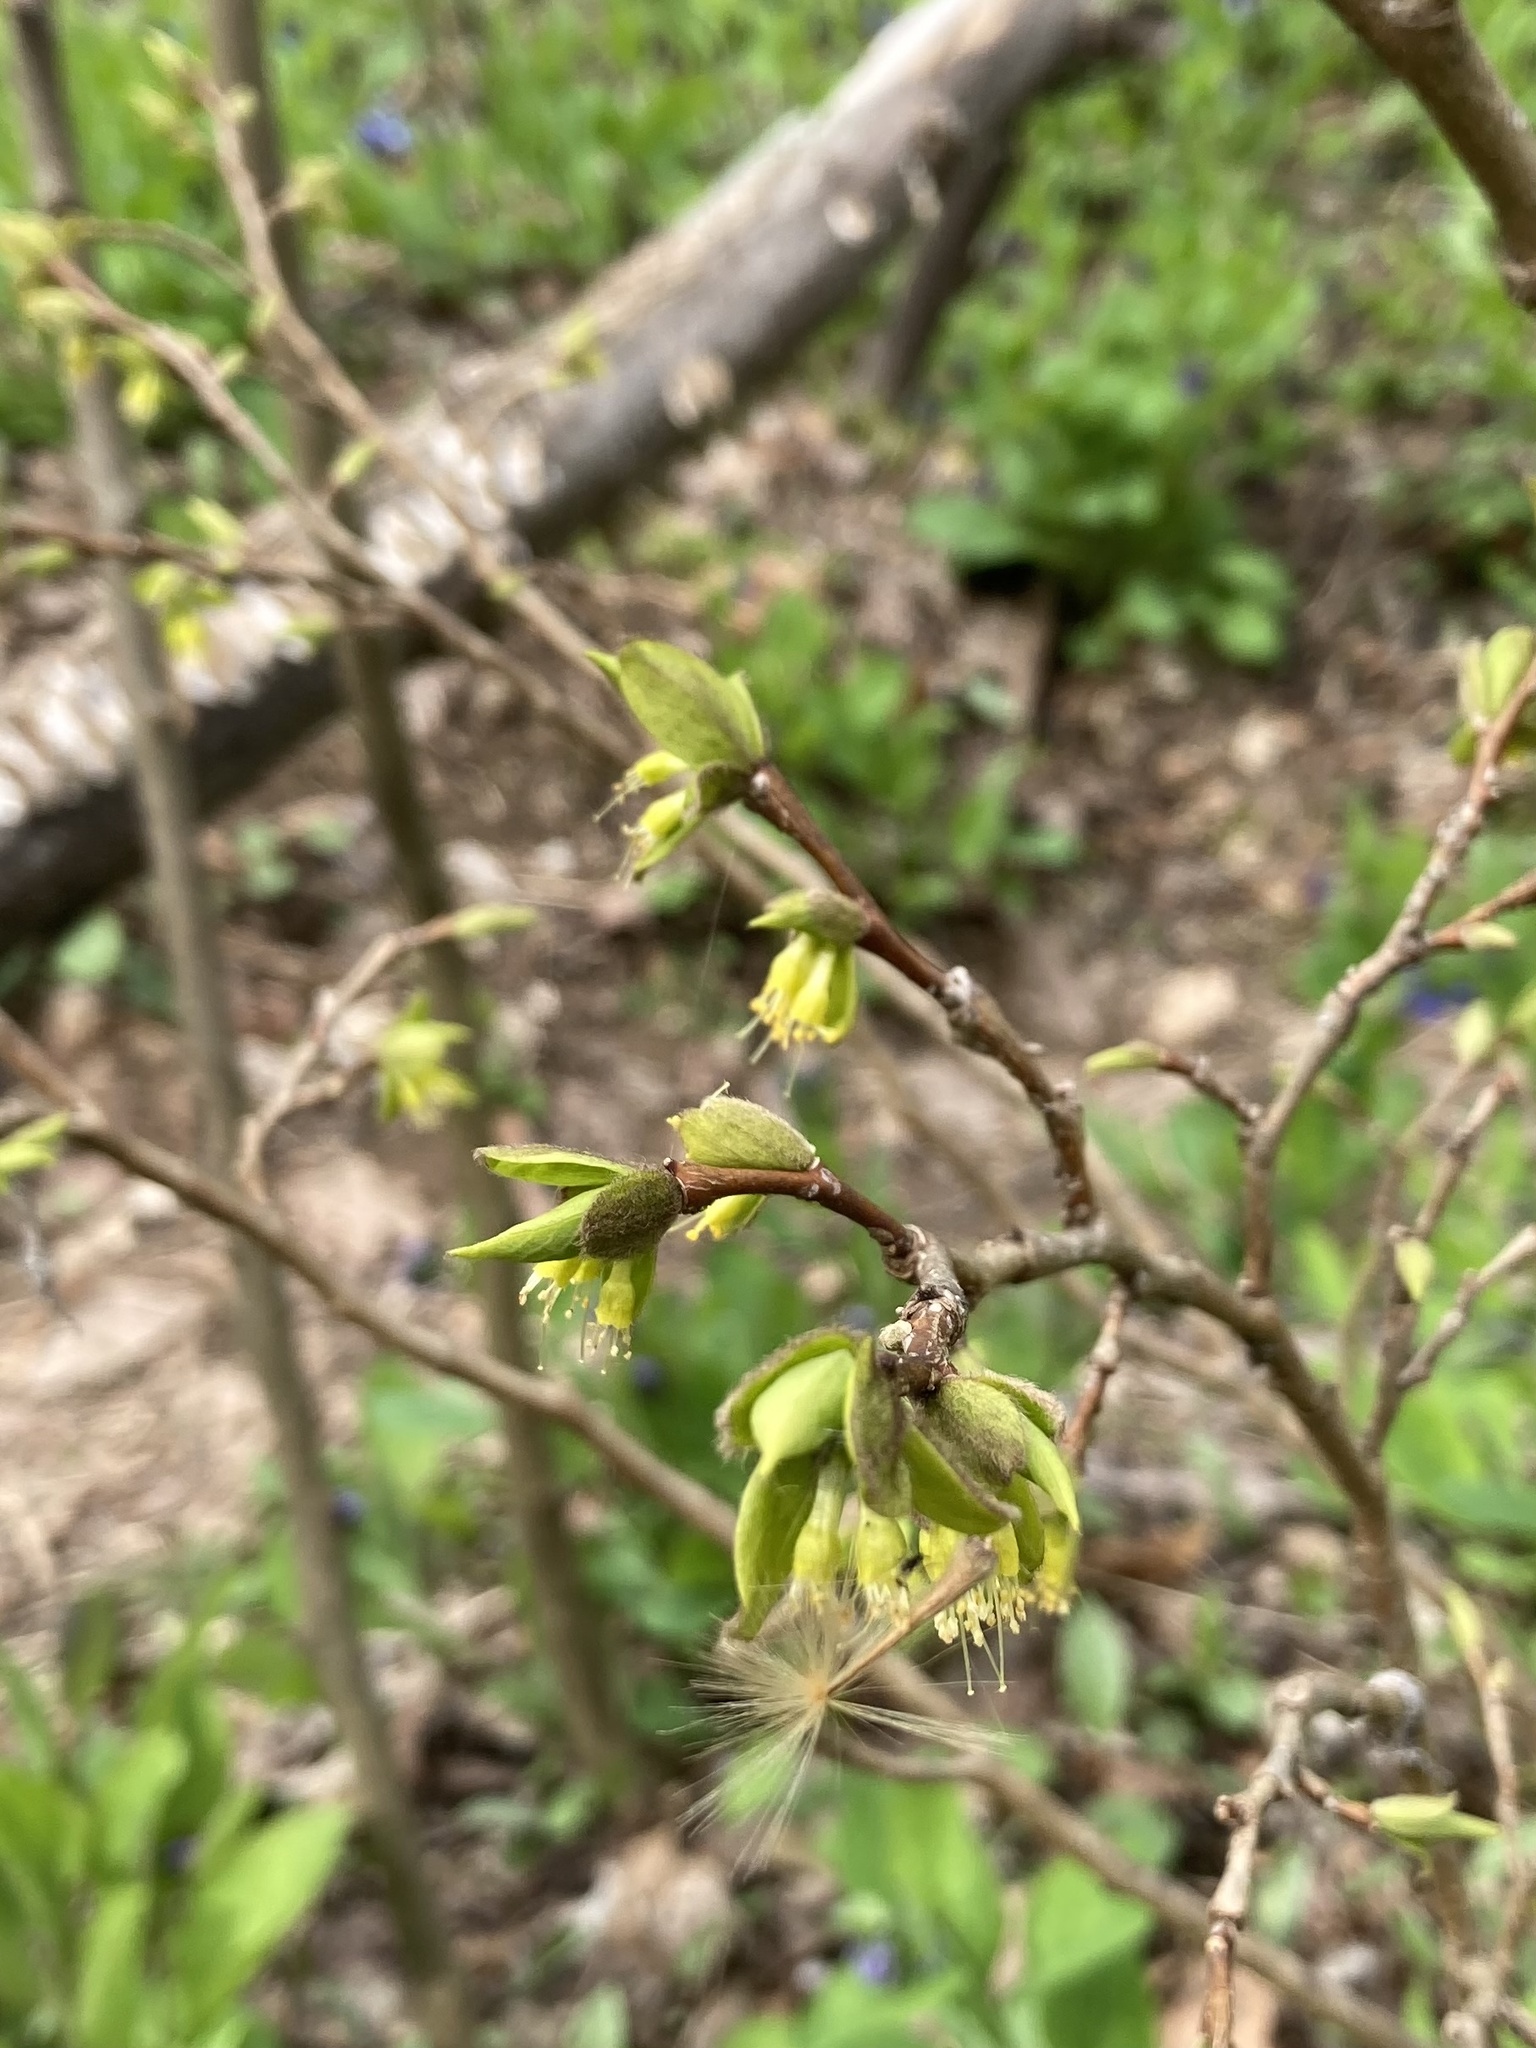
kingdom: Plantae
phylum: Tracheophyta
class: Magnoliopsida
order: Malvales
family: Thymelaeaceae
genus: Dirca
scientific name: Dirca palustris
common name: Leatherwood
